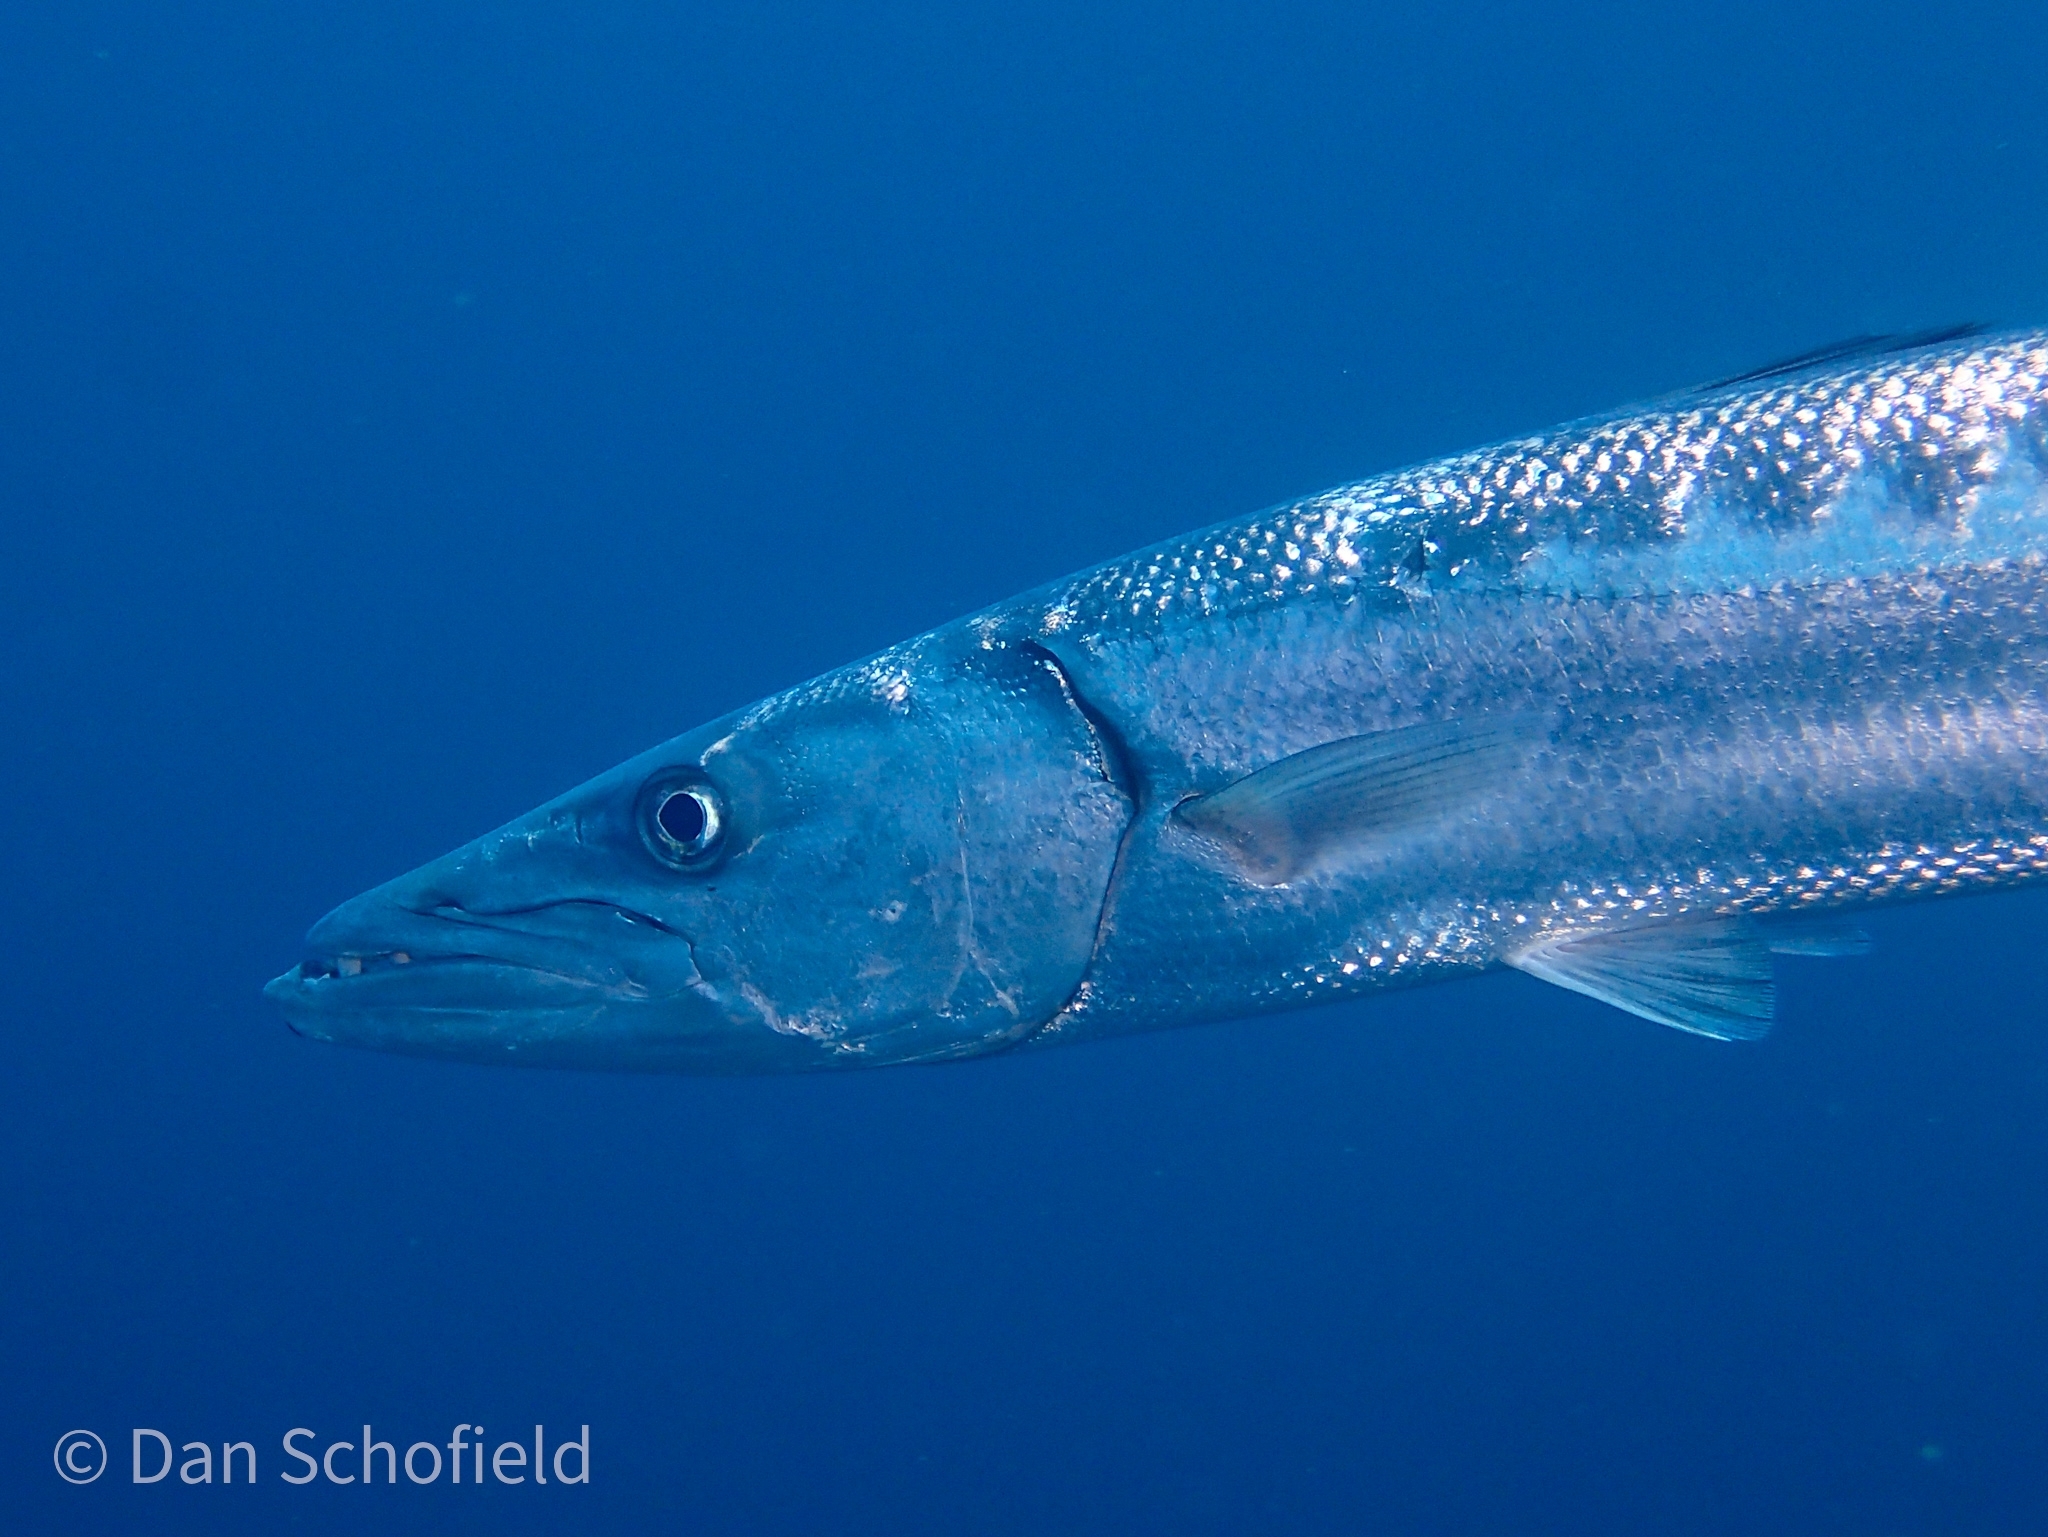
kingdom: Animalia
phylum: Chordata
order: Perciformes
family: Sphyraenidae
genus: Sphyraena
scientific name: Sphyraena barracuda
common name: Great barracuda
